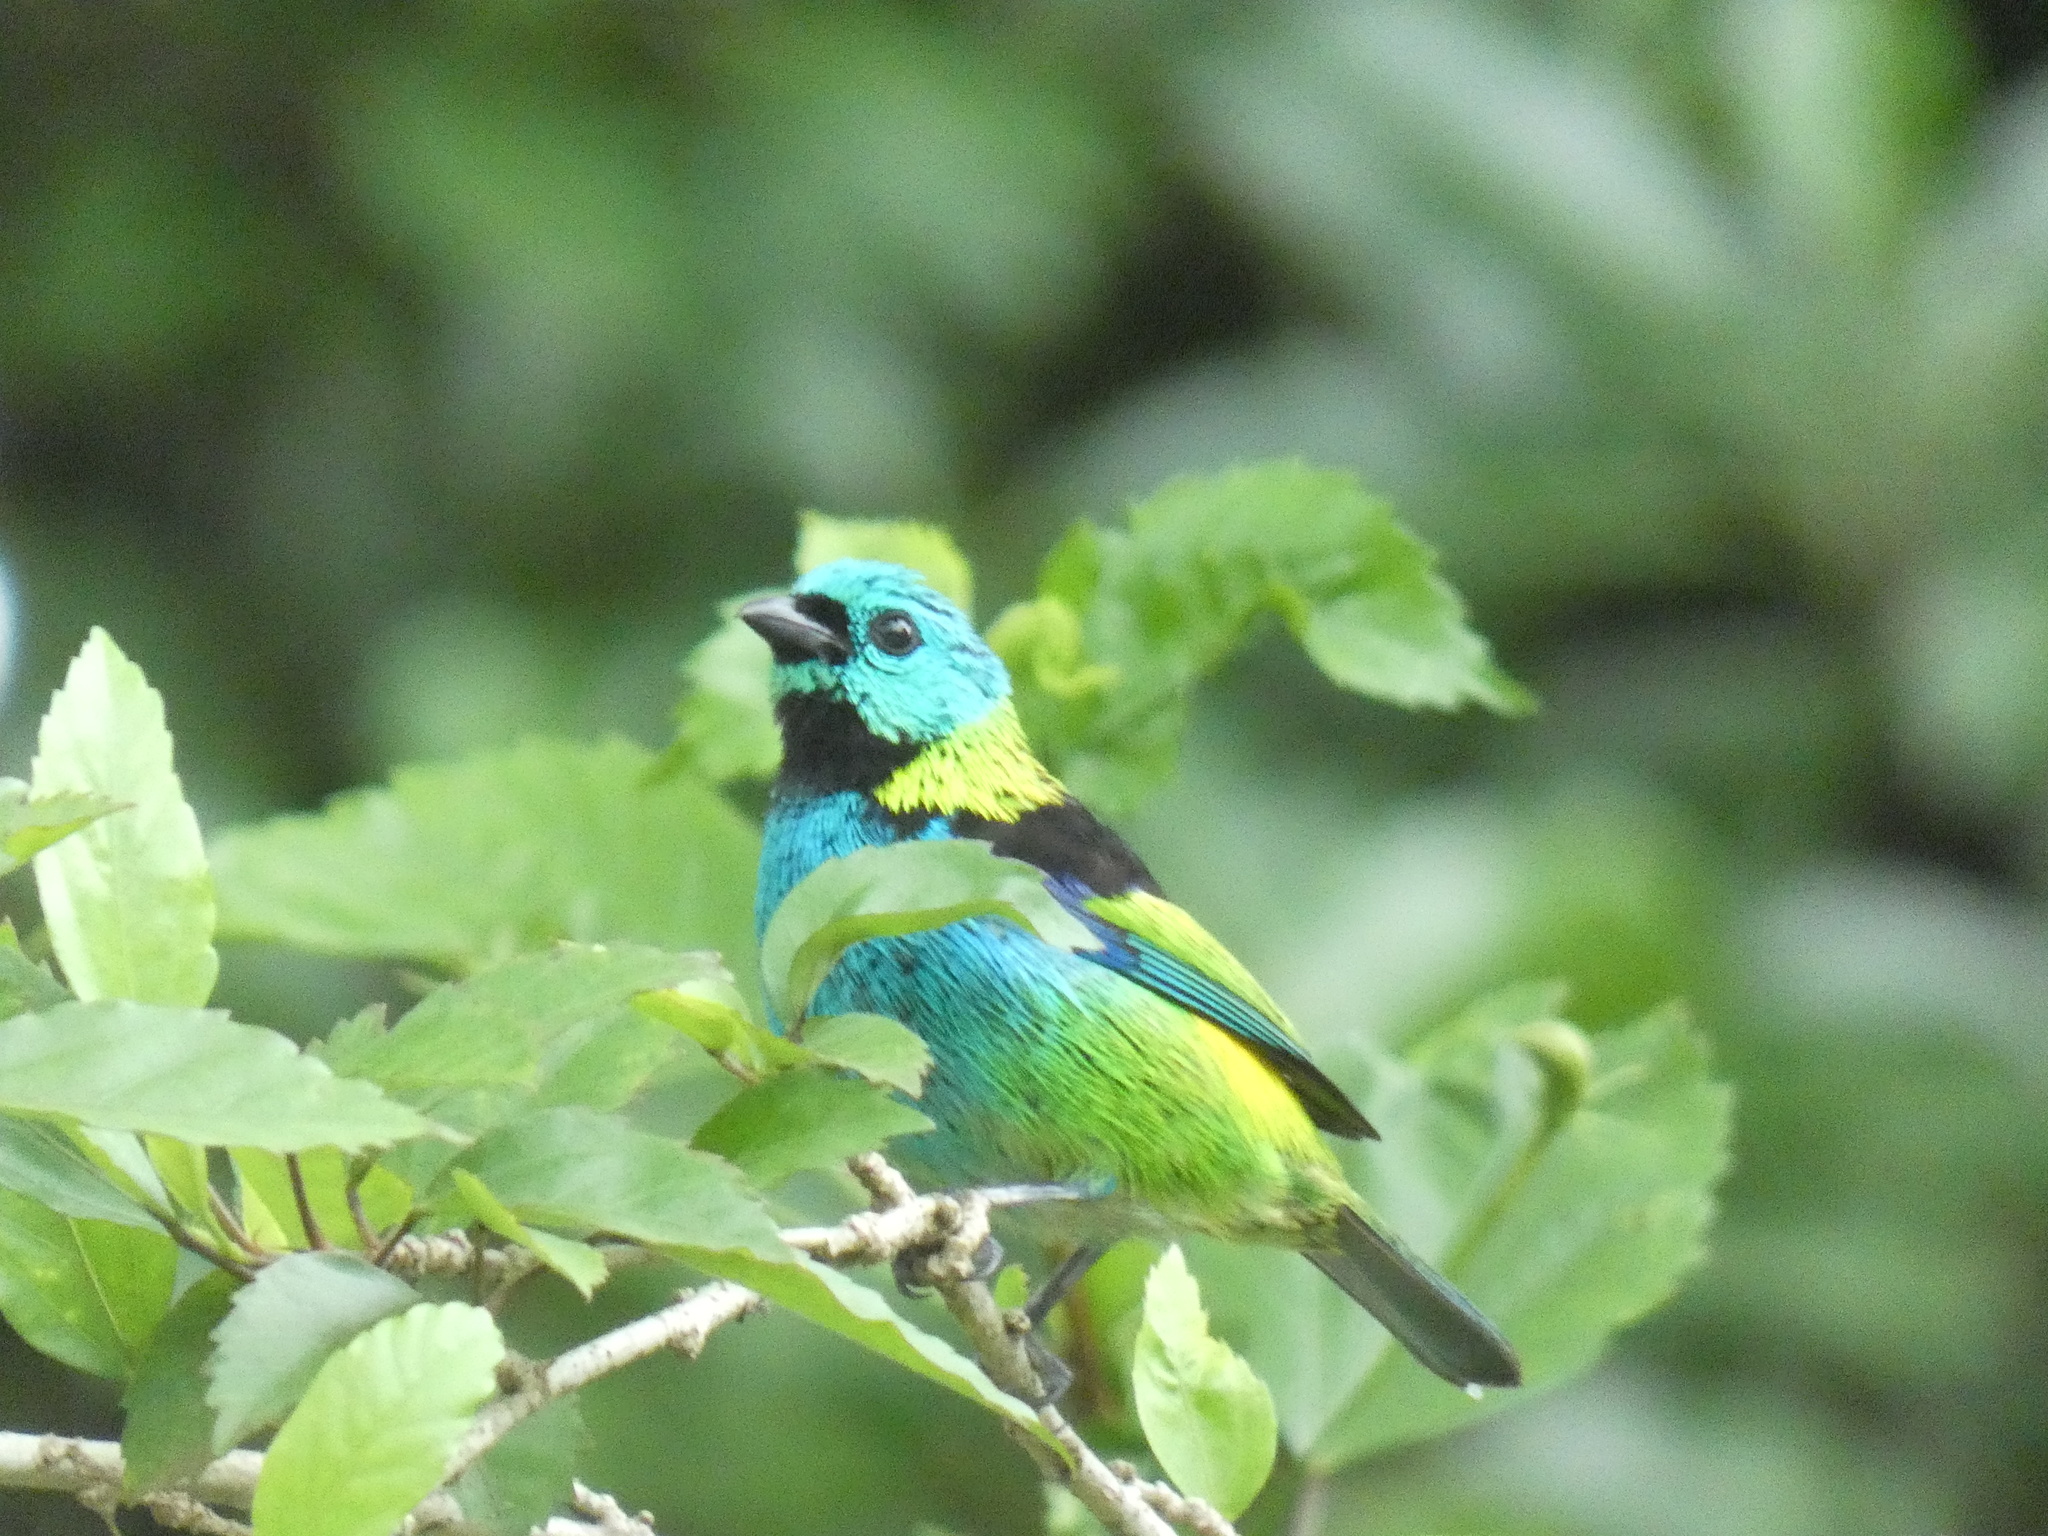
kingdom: Animalia
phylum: Chordata
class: Aves
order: Passeriformes
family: Thraupidae
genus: Tangara
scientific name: Tangara seledon
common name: Green-headed tanager
